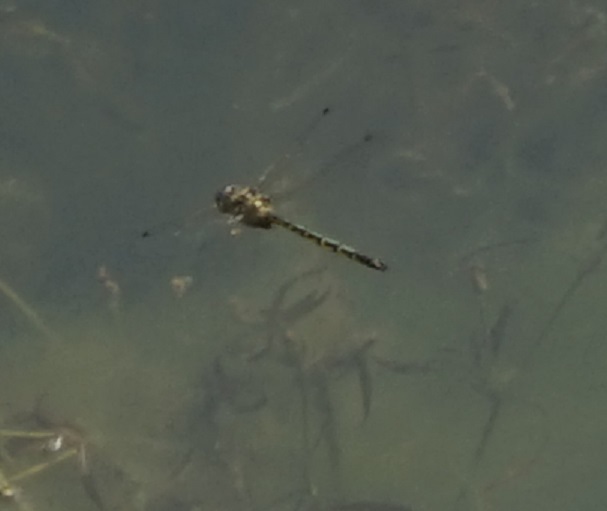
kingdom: Animalia
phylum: Arthropoda
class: Insecta
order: Odonata
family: Corduliidae
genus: Hemicordulia
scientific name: Hemicordulia australiae
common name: Sentry dragonfly
